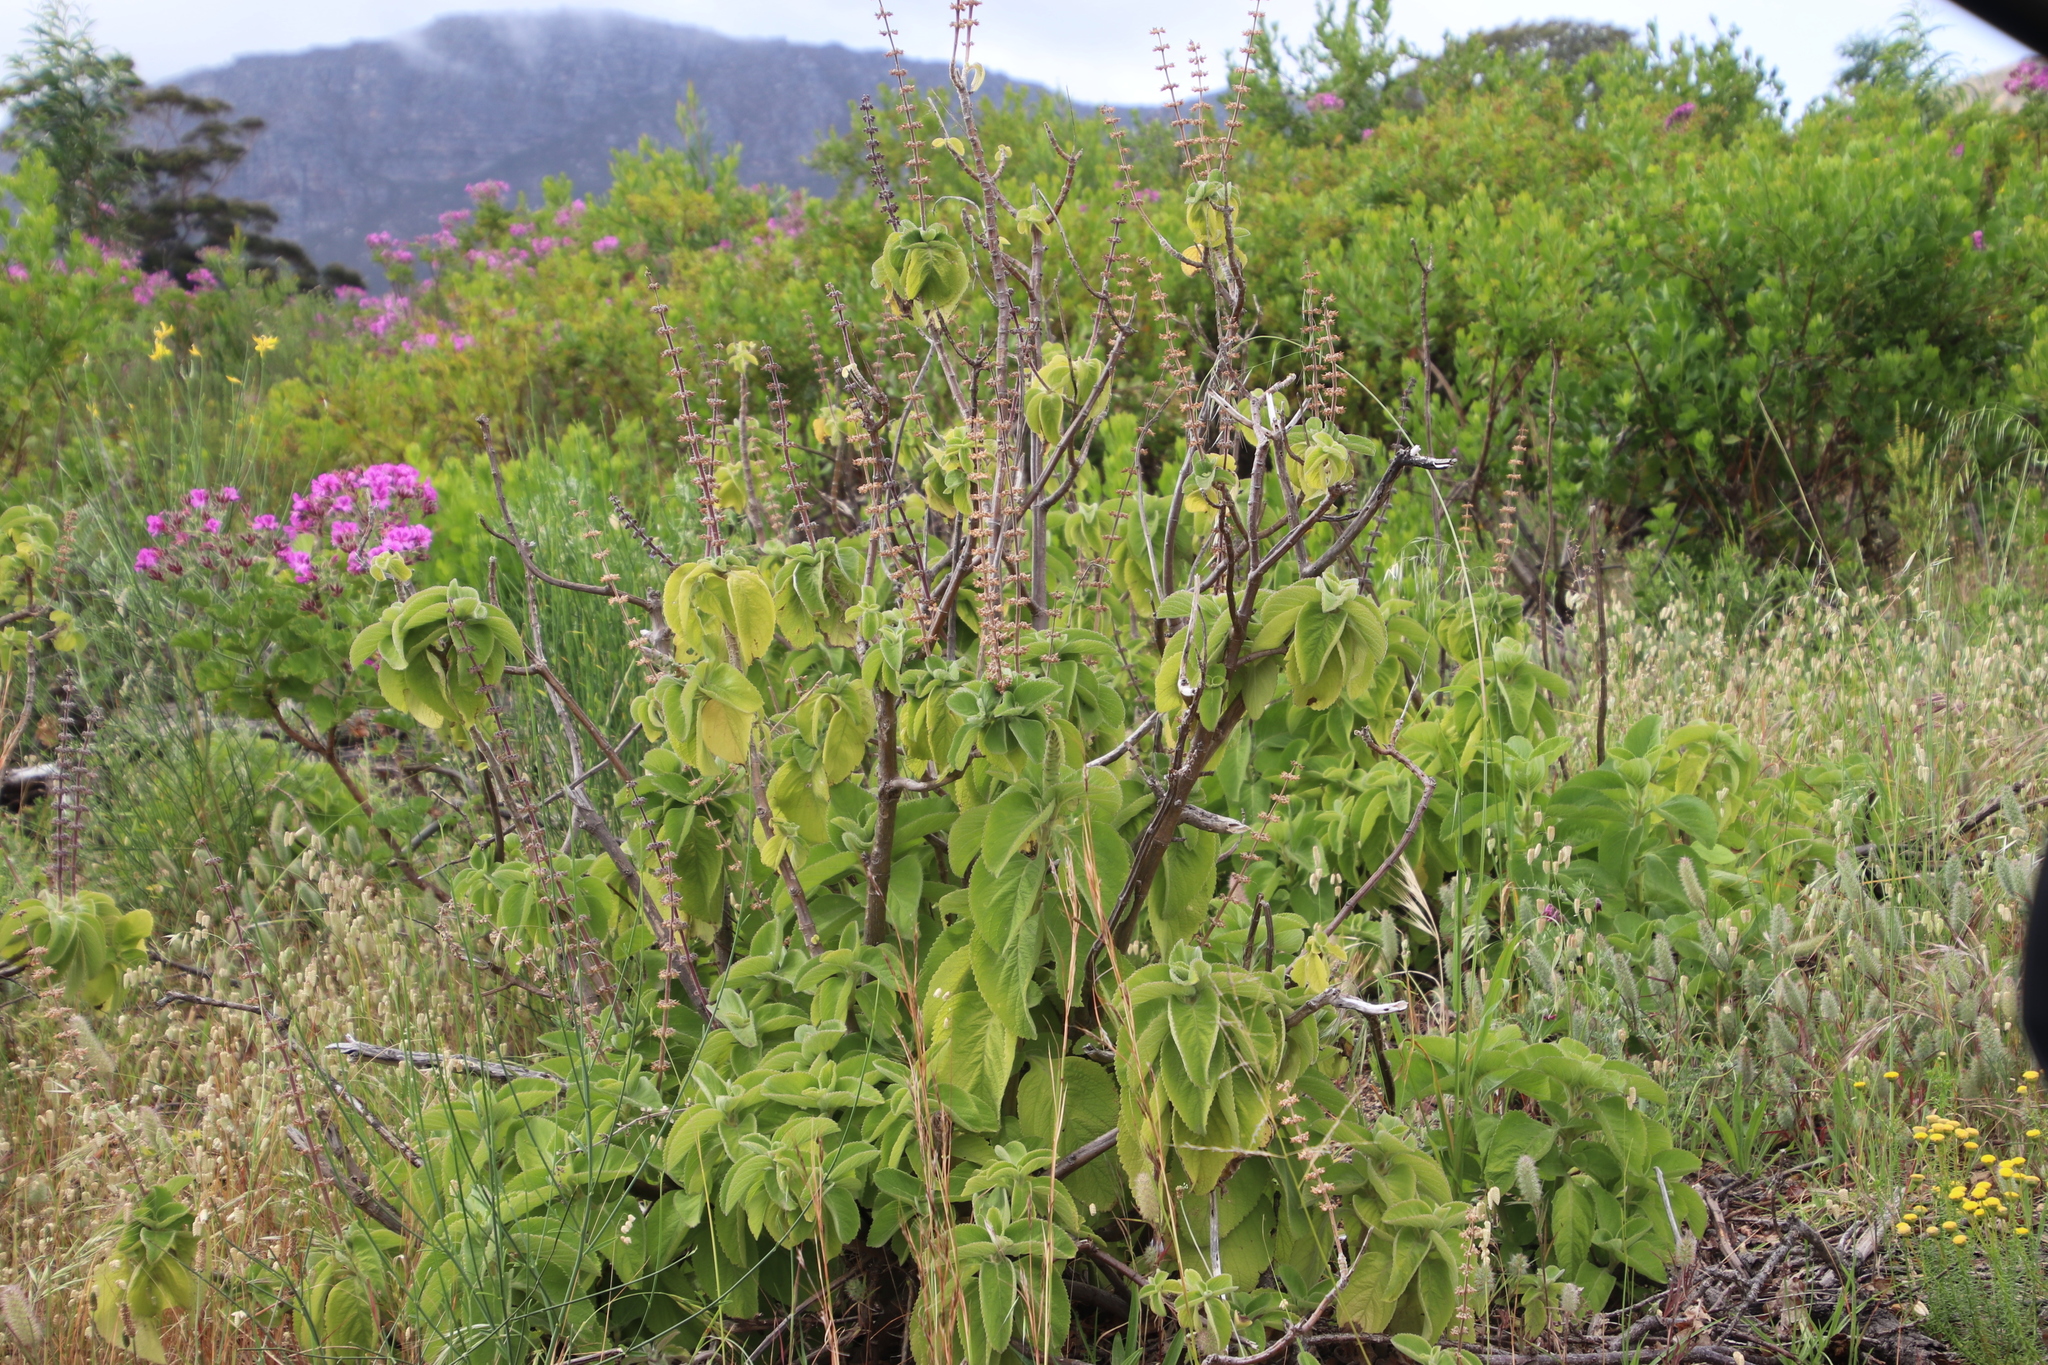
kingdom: Plantae
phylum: Tracheophyta
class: Magnoliopsida
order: Lamiales
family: Lamiaceae
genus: Coleus
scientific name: Coleus barbatus
